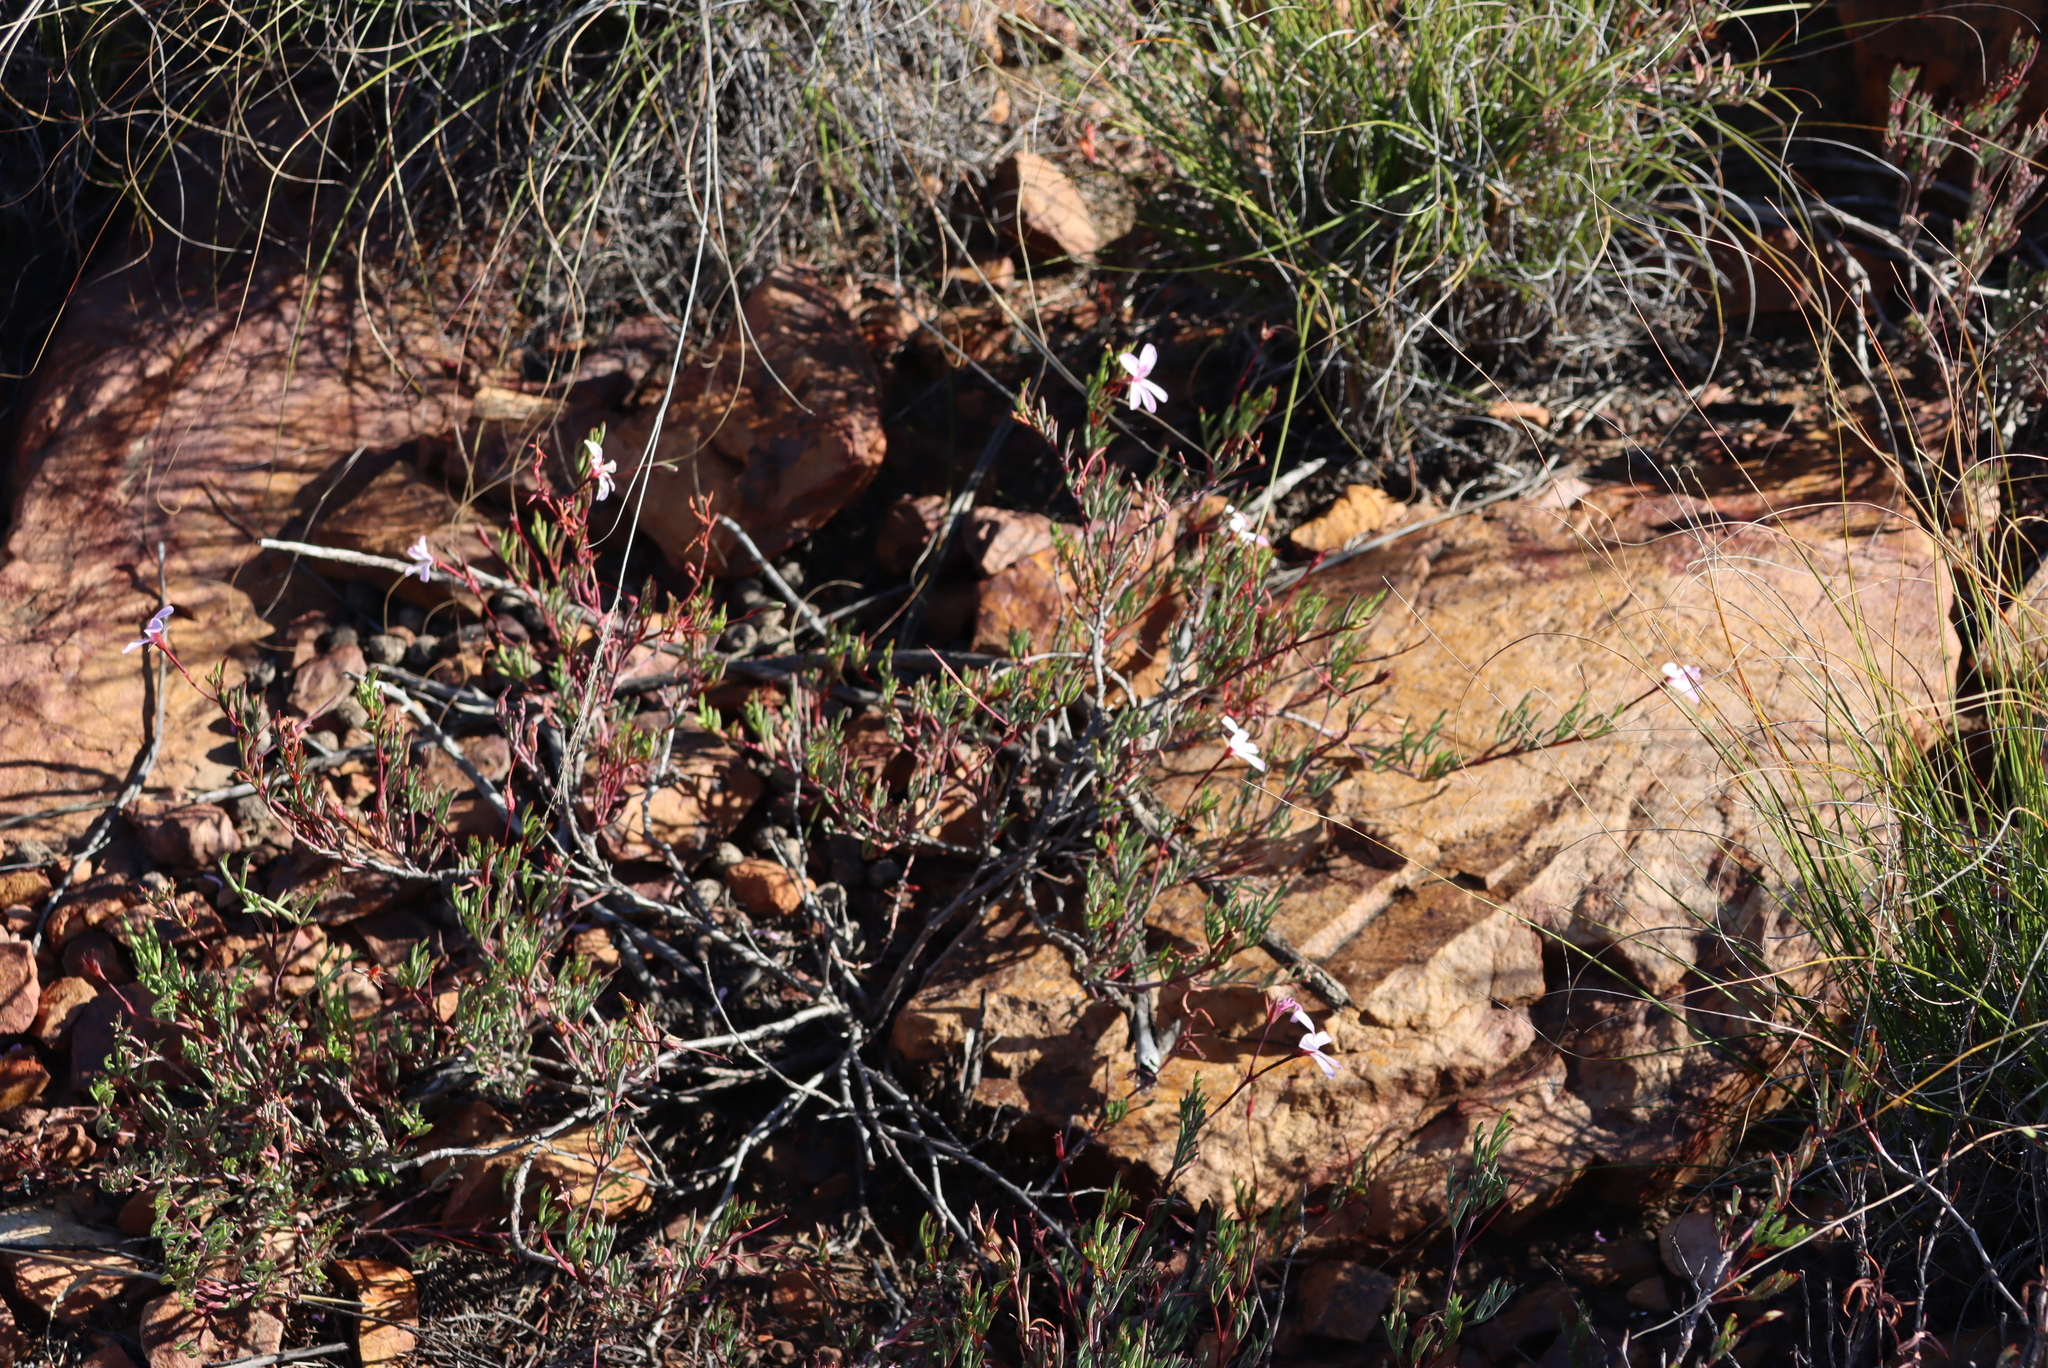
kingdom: Plantae
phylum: Tracheophyta
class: Magnoliopsida
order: Geraniales
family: Geraniaceae
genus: Pelargonium
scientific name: Pelargonium laevigatum
